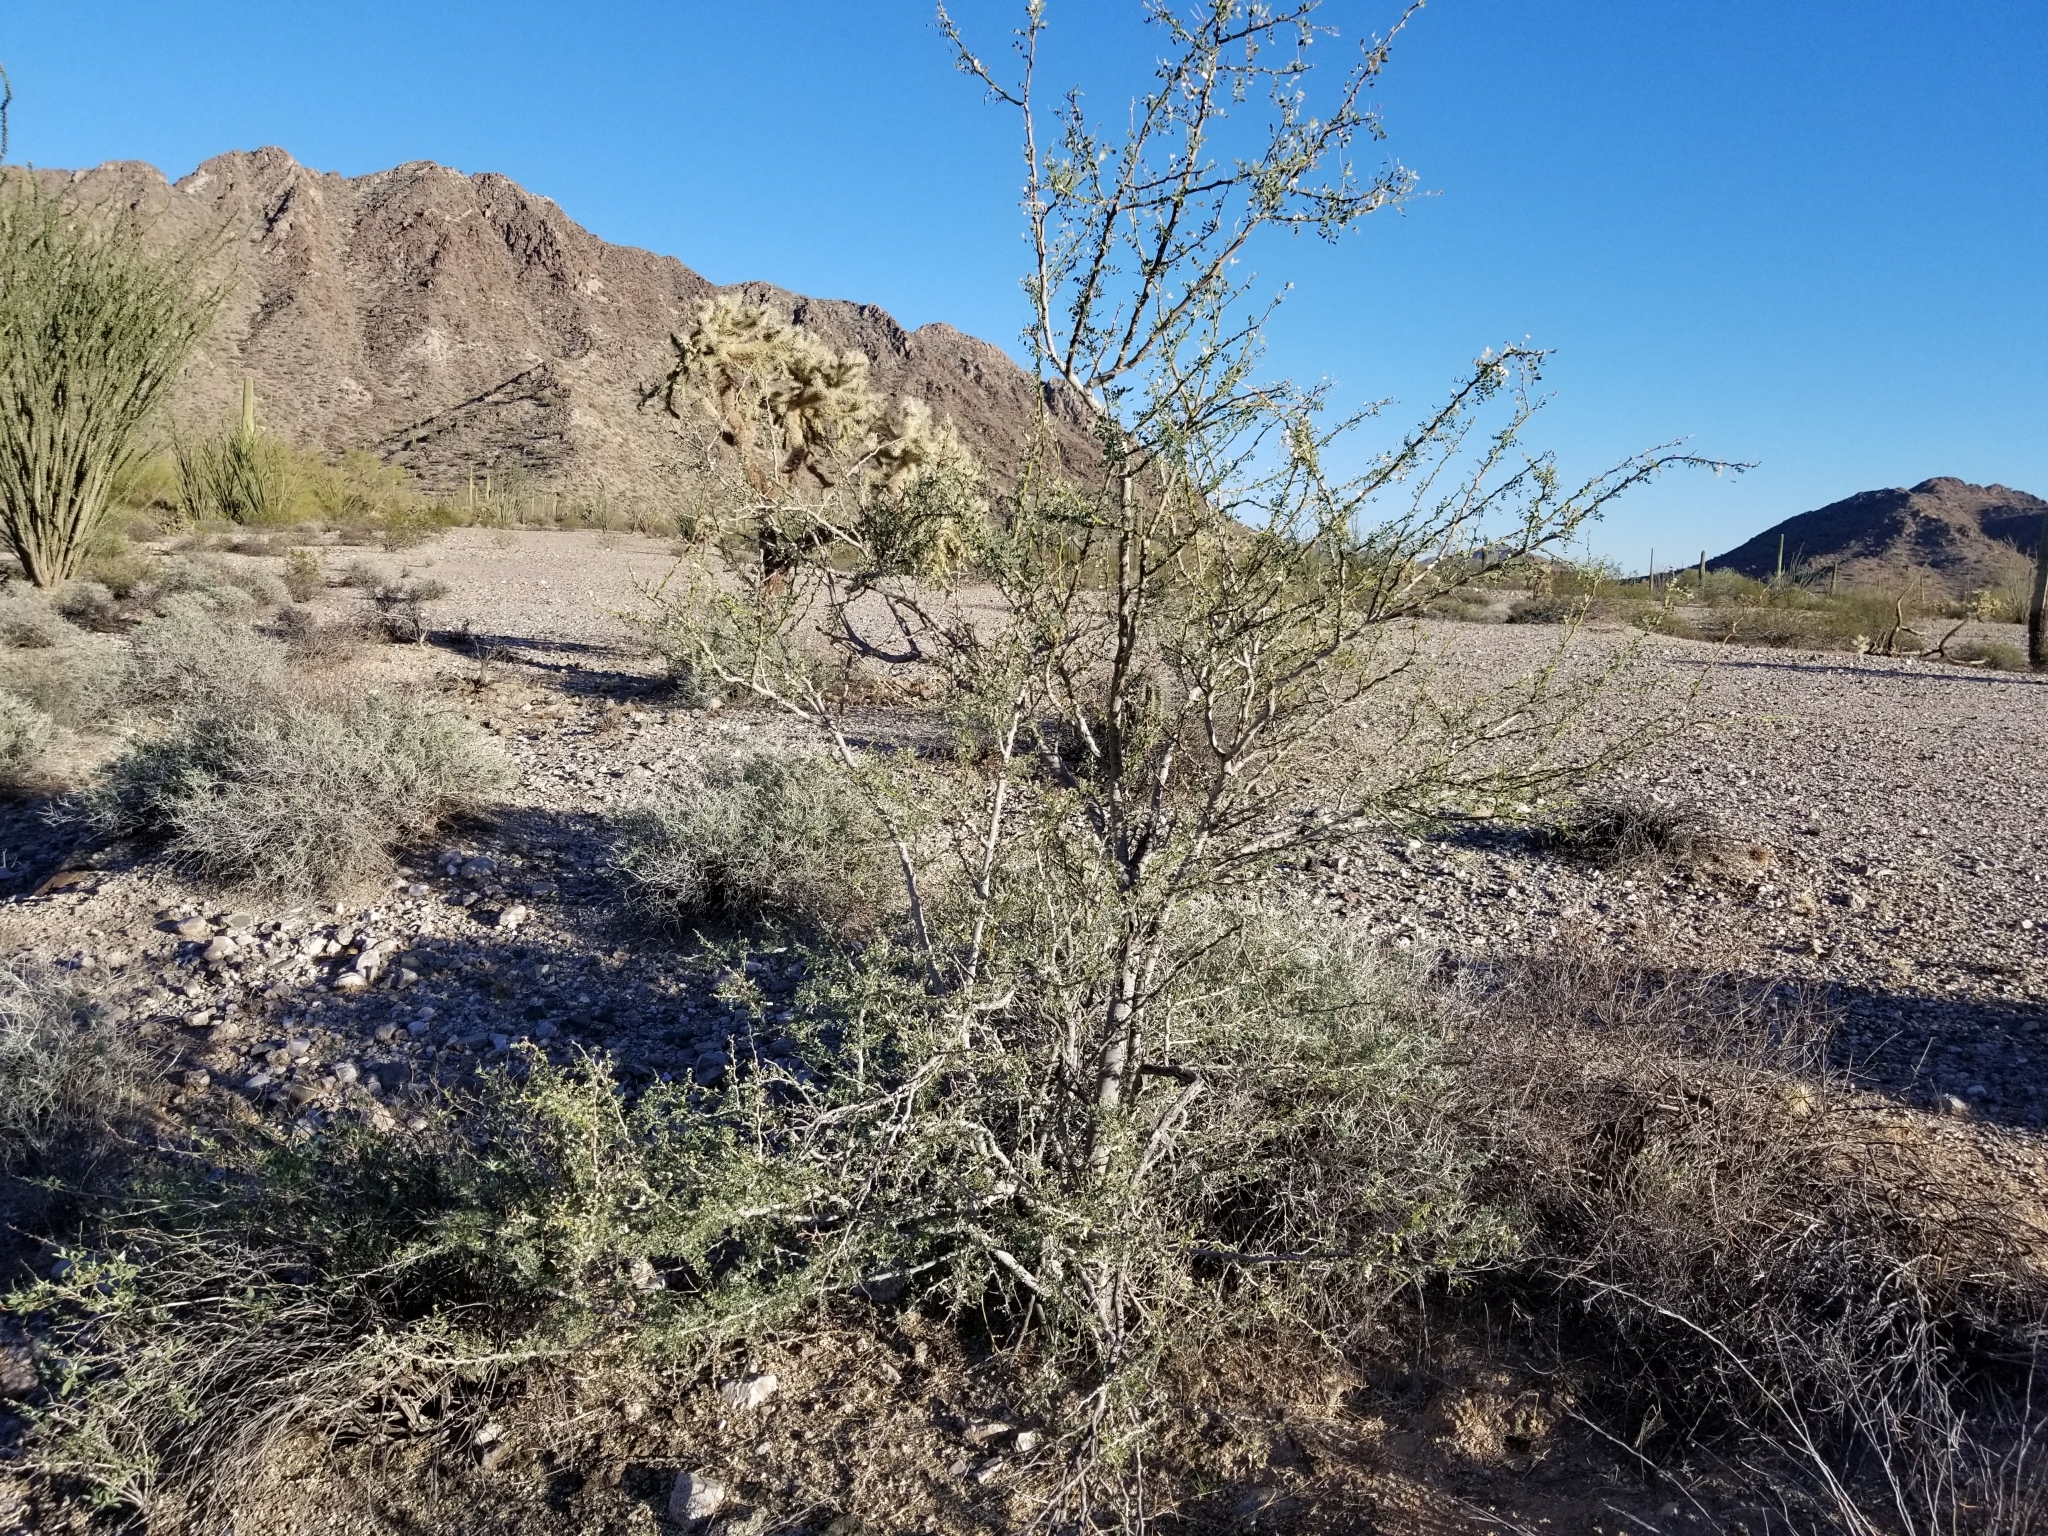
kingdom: Plantae
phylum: Tracheophyta
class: Magnoliopsida
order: Fabales
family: Fabaceae
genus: Senegalia
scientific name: Senegalia greggii
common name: Texas-mimosa
